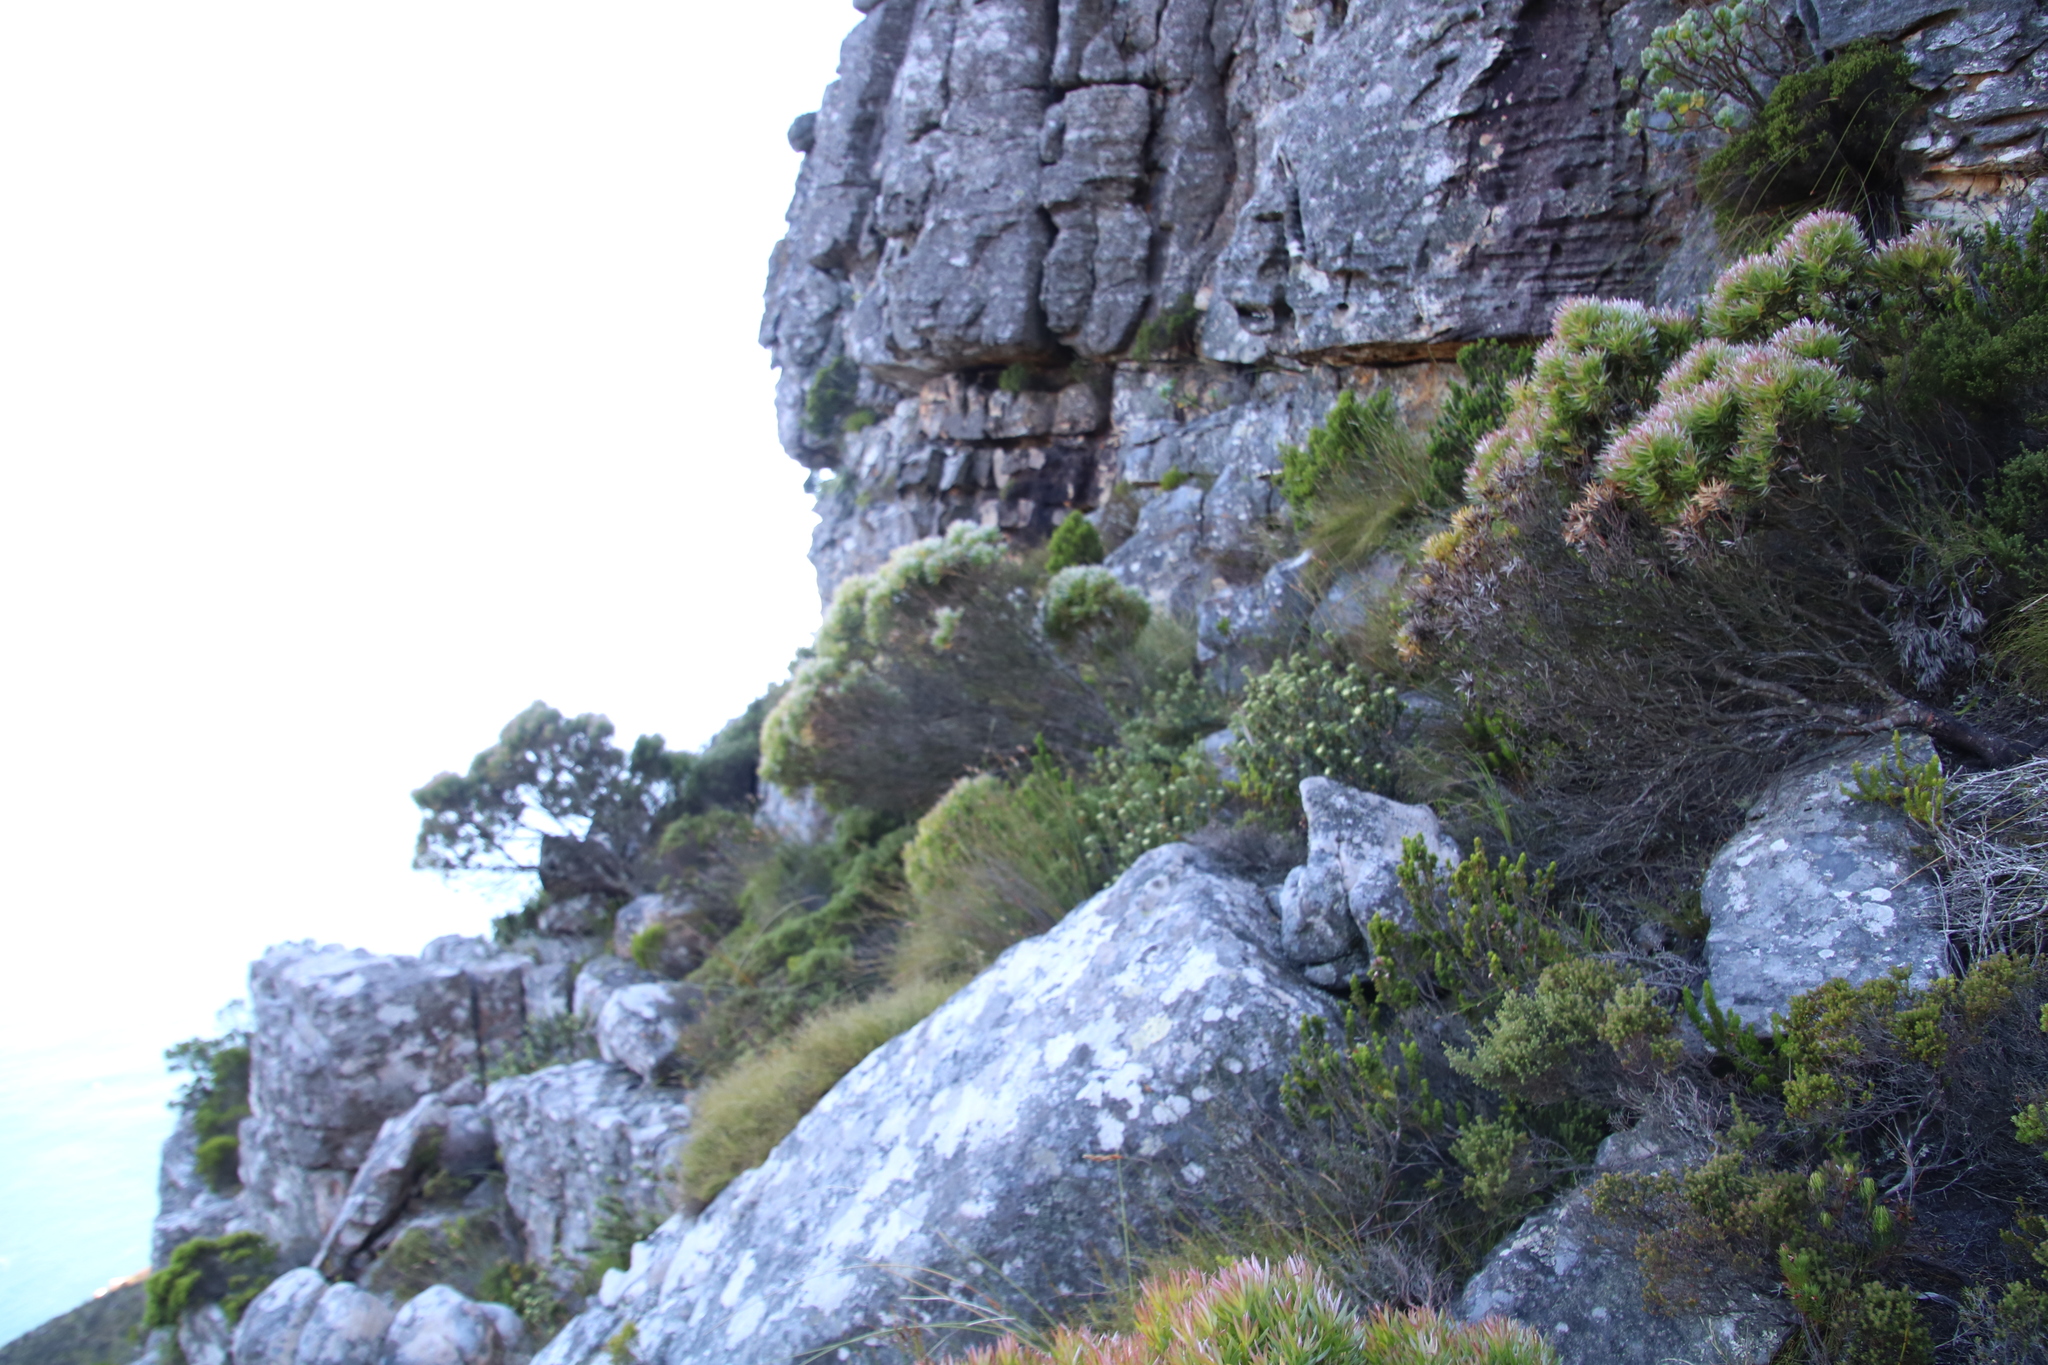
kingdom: Plantae
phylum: Tracheophyta
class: Magnoliopsida
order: Proteales
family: Proteaceae
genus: Leucadendron
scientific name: Leucadendron xanthoconus
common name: Sickle-leaf conebush
